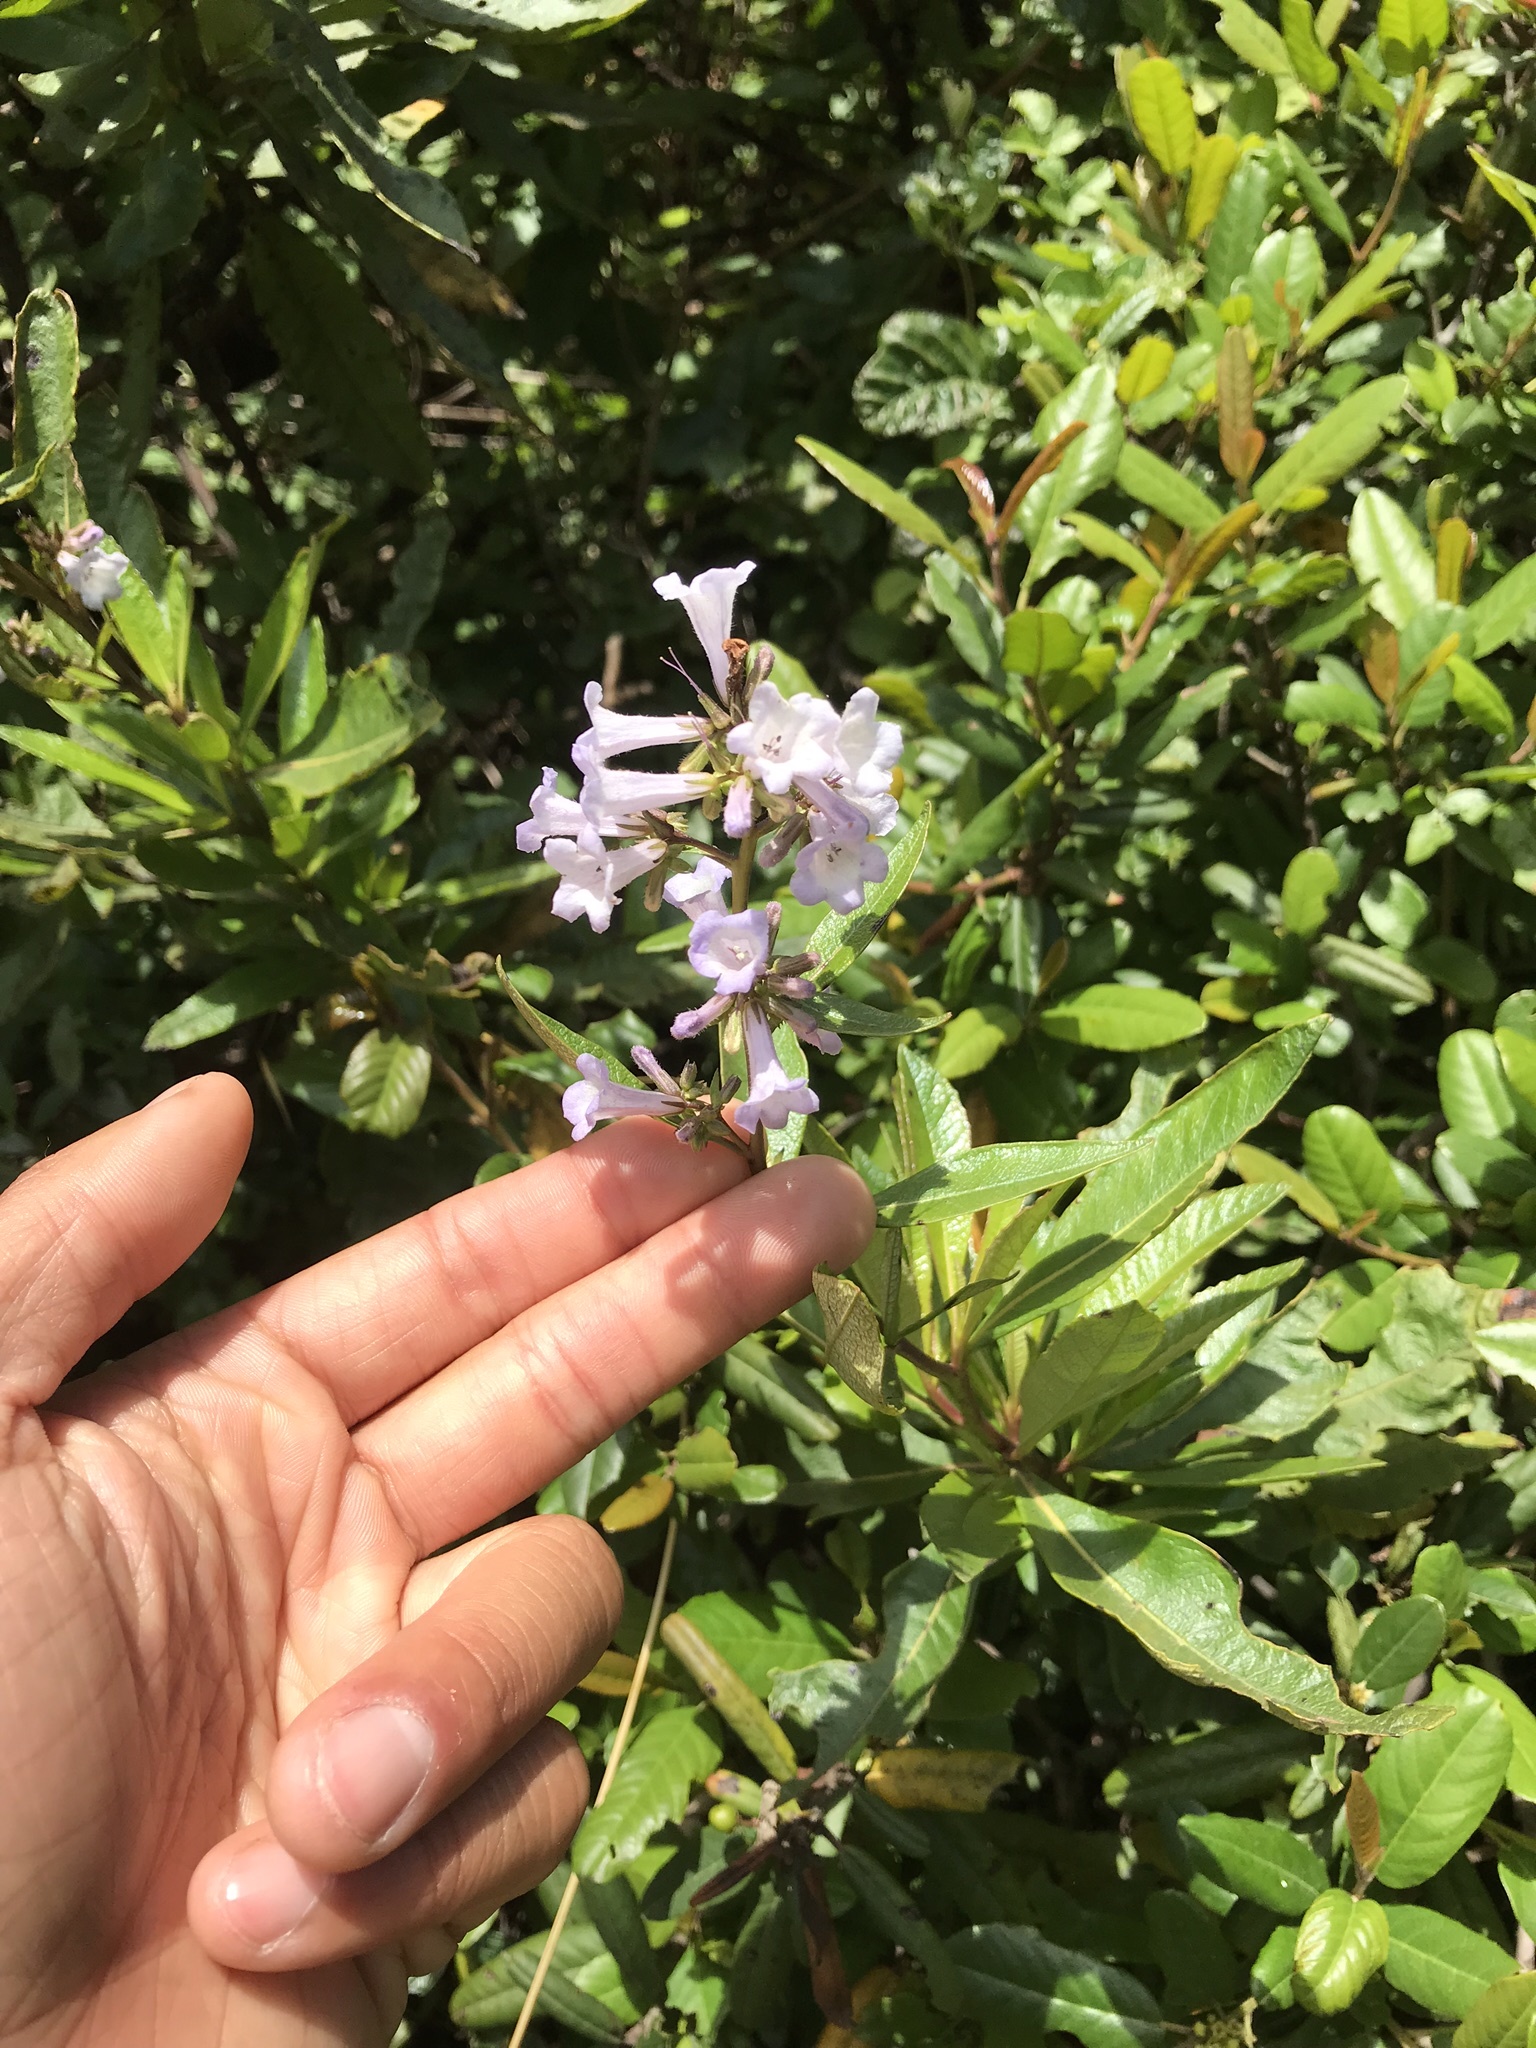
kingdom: Plantae
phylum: Tracheophyta
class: Magnoliopsida
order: Boraginales
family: Namaceae
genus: Eriodictyon
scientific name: Eriodictyon californicum
